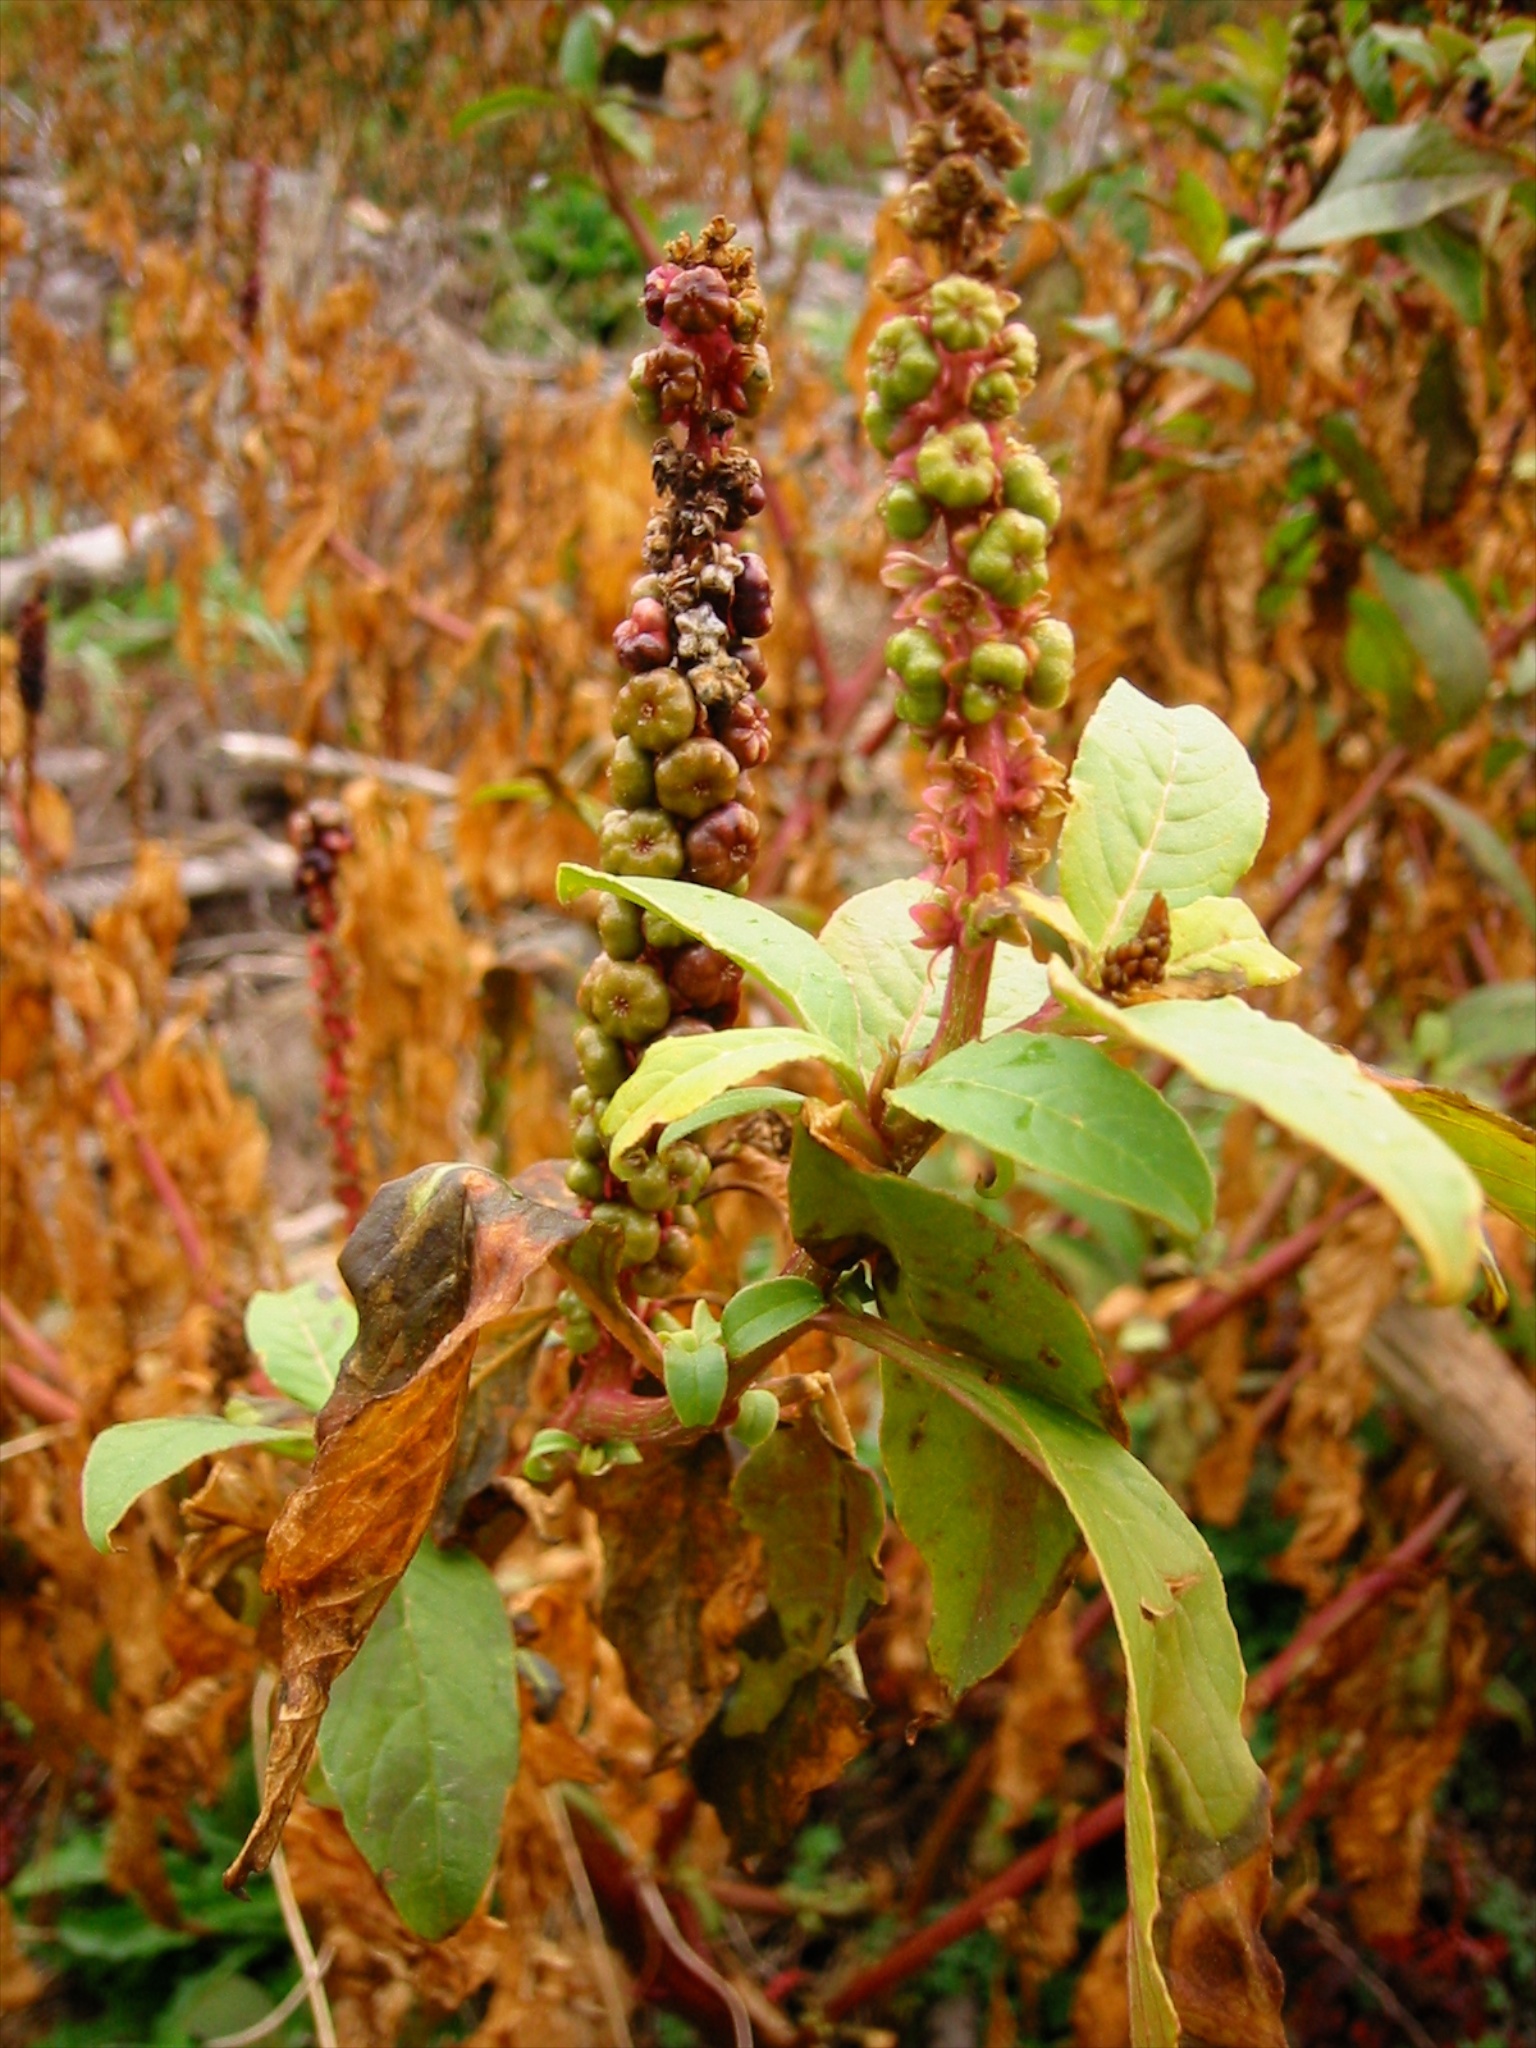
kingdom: Plantae
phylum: Tracheophyta
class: Magnoliopsida
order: Caryophyllales
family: Phytolaccaceae
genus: Phytolacca
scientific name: Phytolacca icosandra
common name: Button pokeweed
